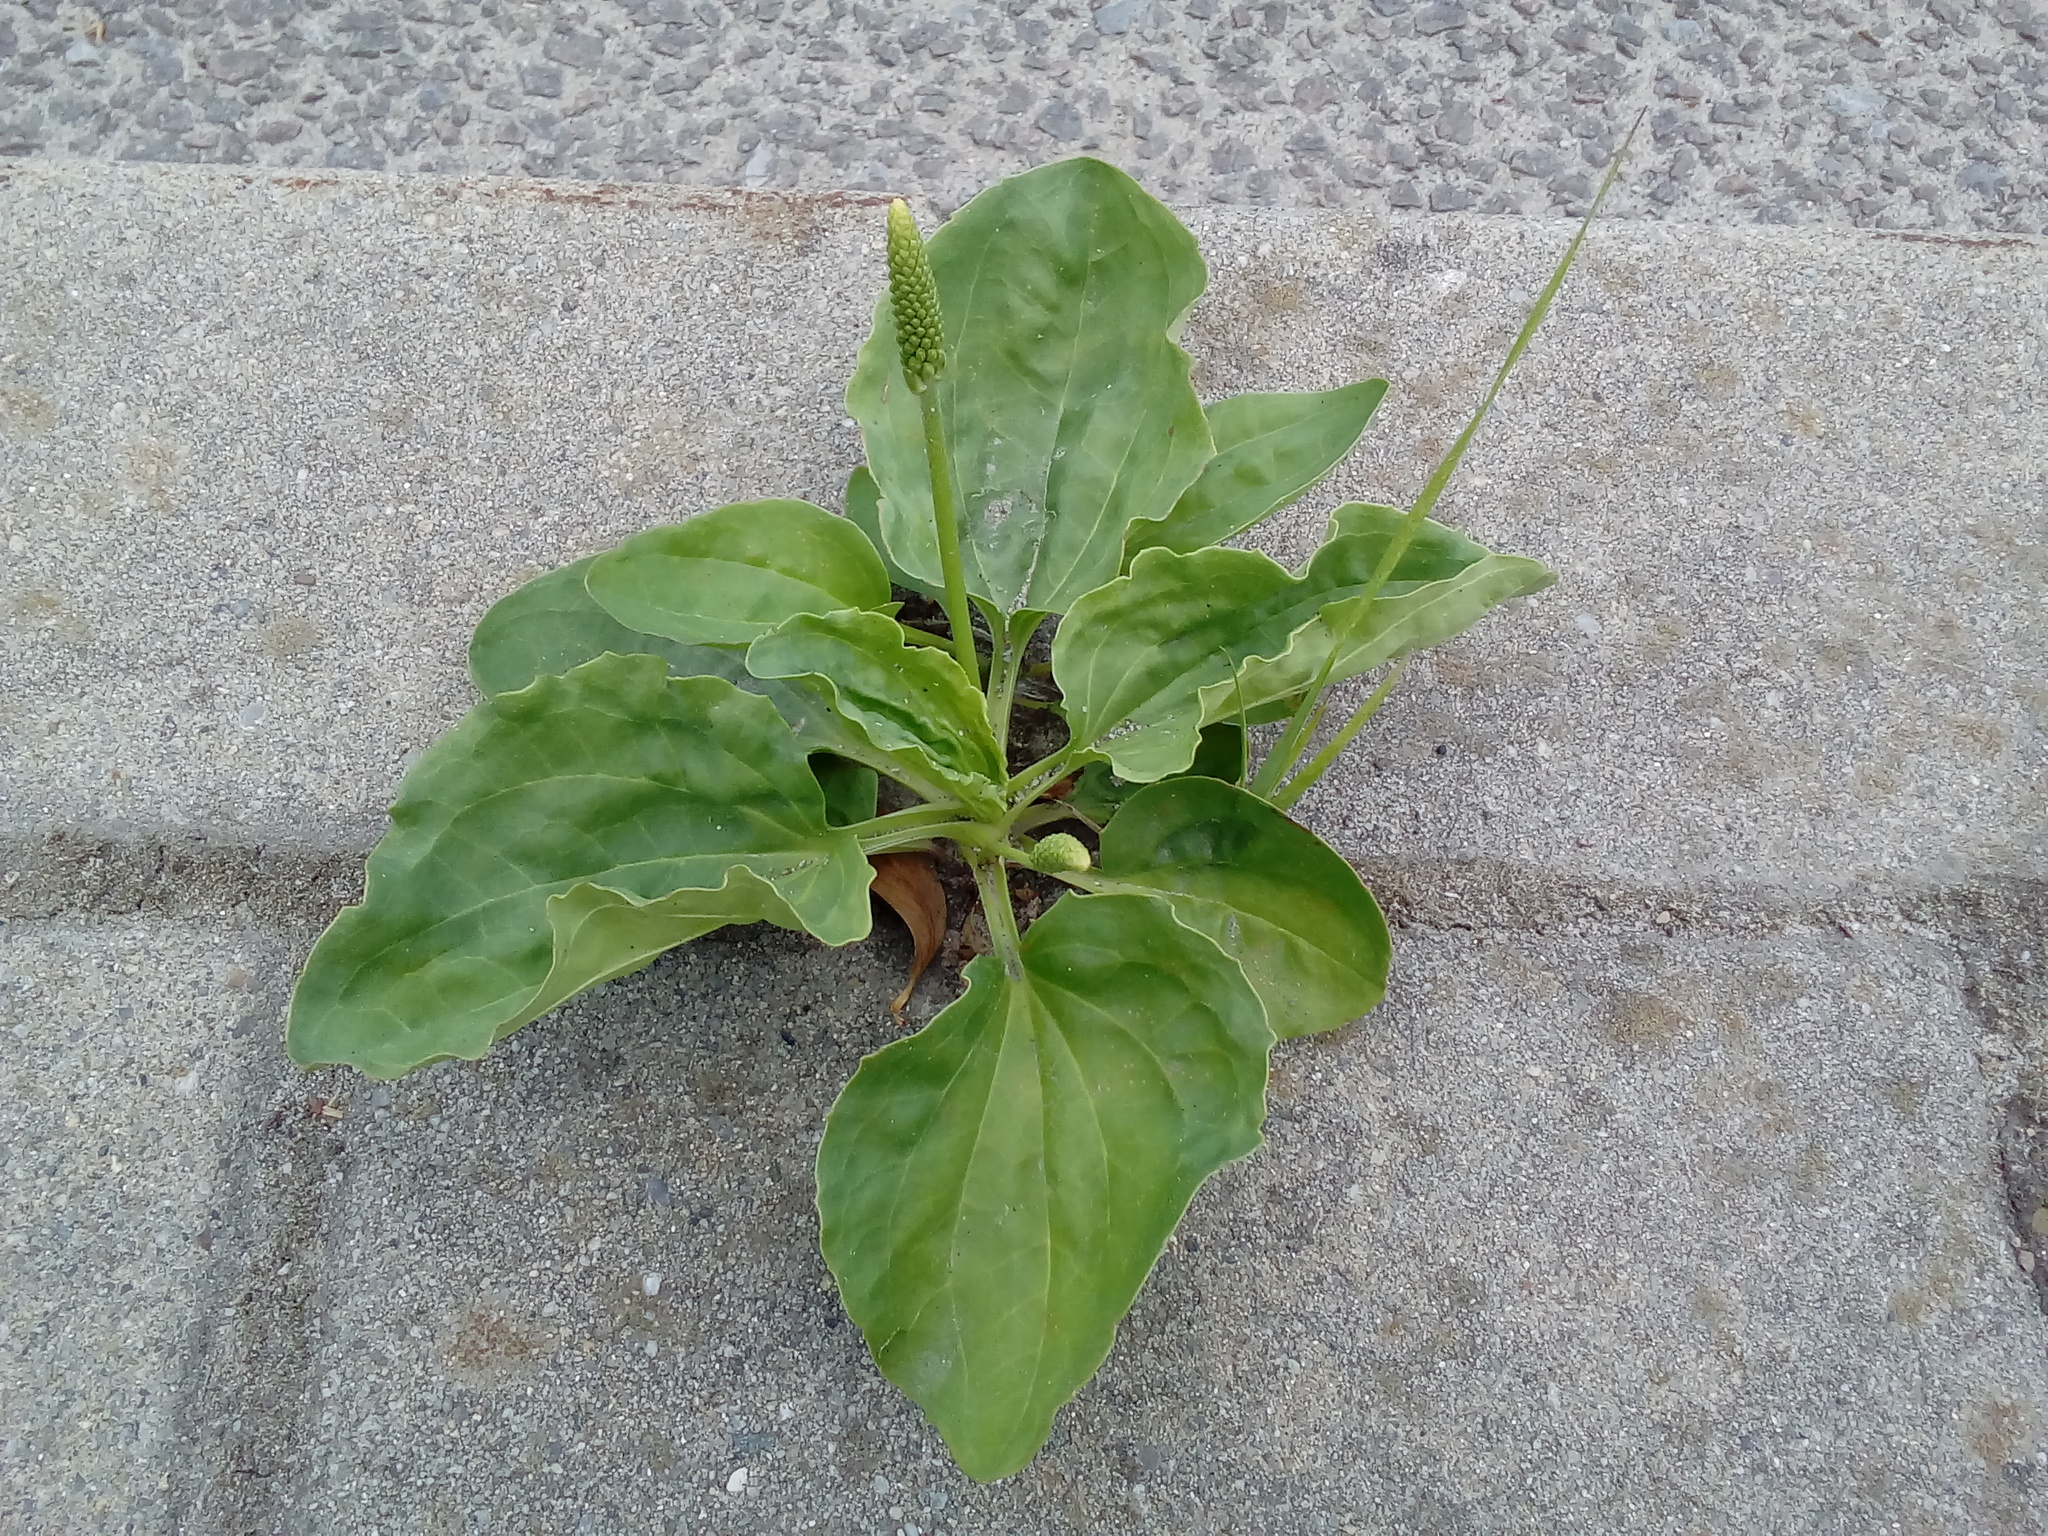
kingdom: Plantae
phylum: Tracheophyta
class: Magnoliopsida
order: Lamiales
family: Plantaginaceae
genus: Plantago
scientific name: Plantago major
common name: Common plantain
